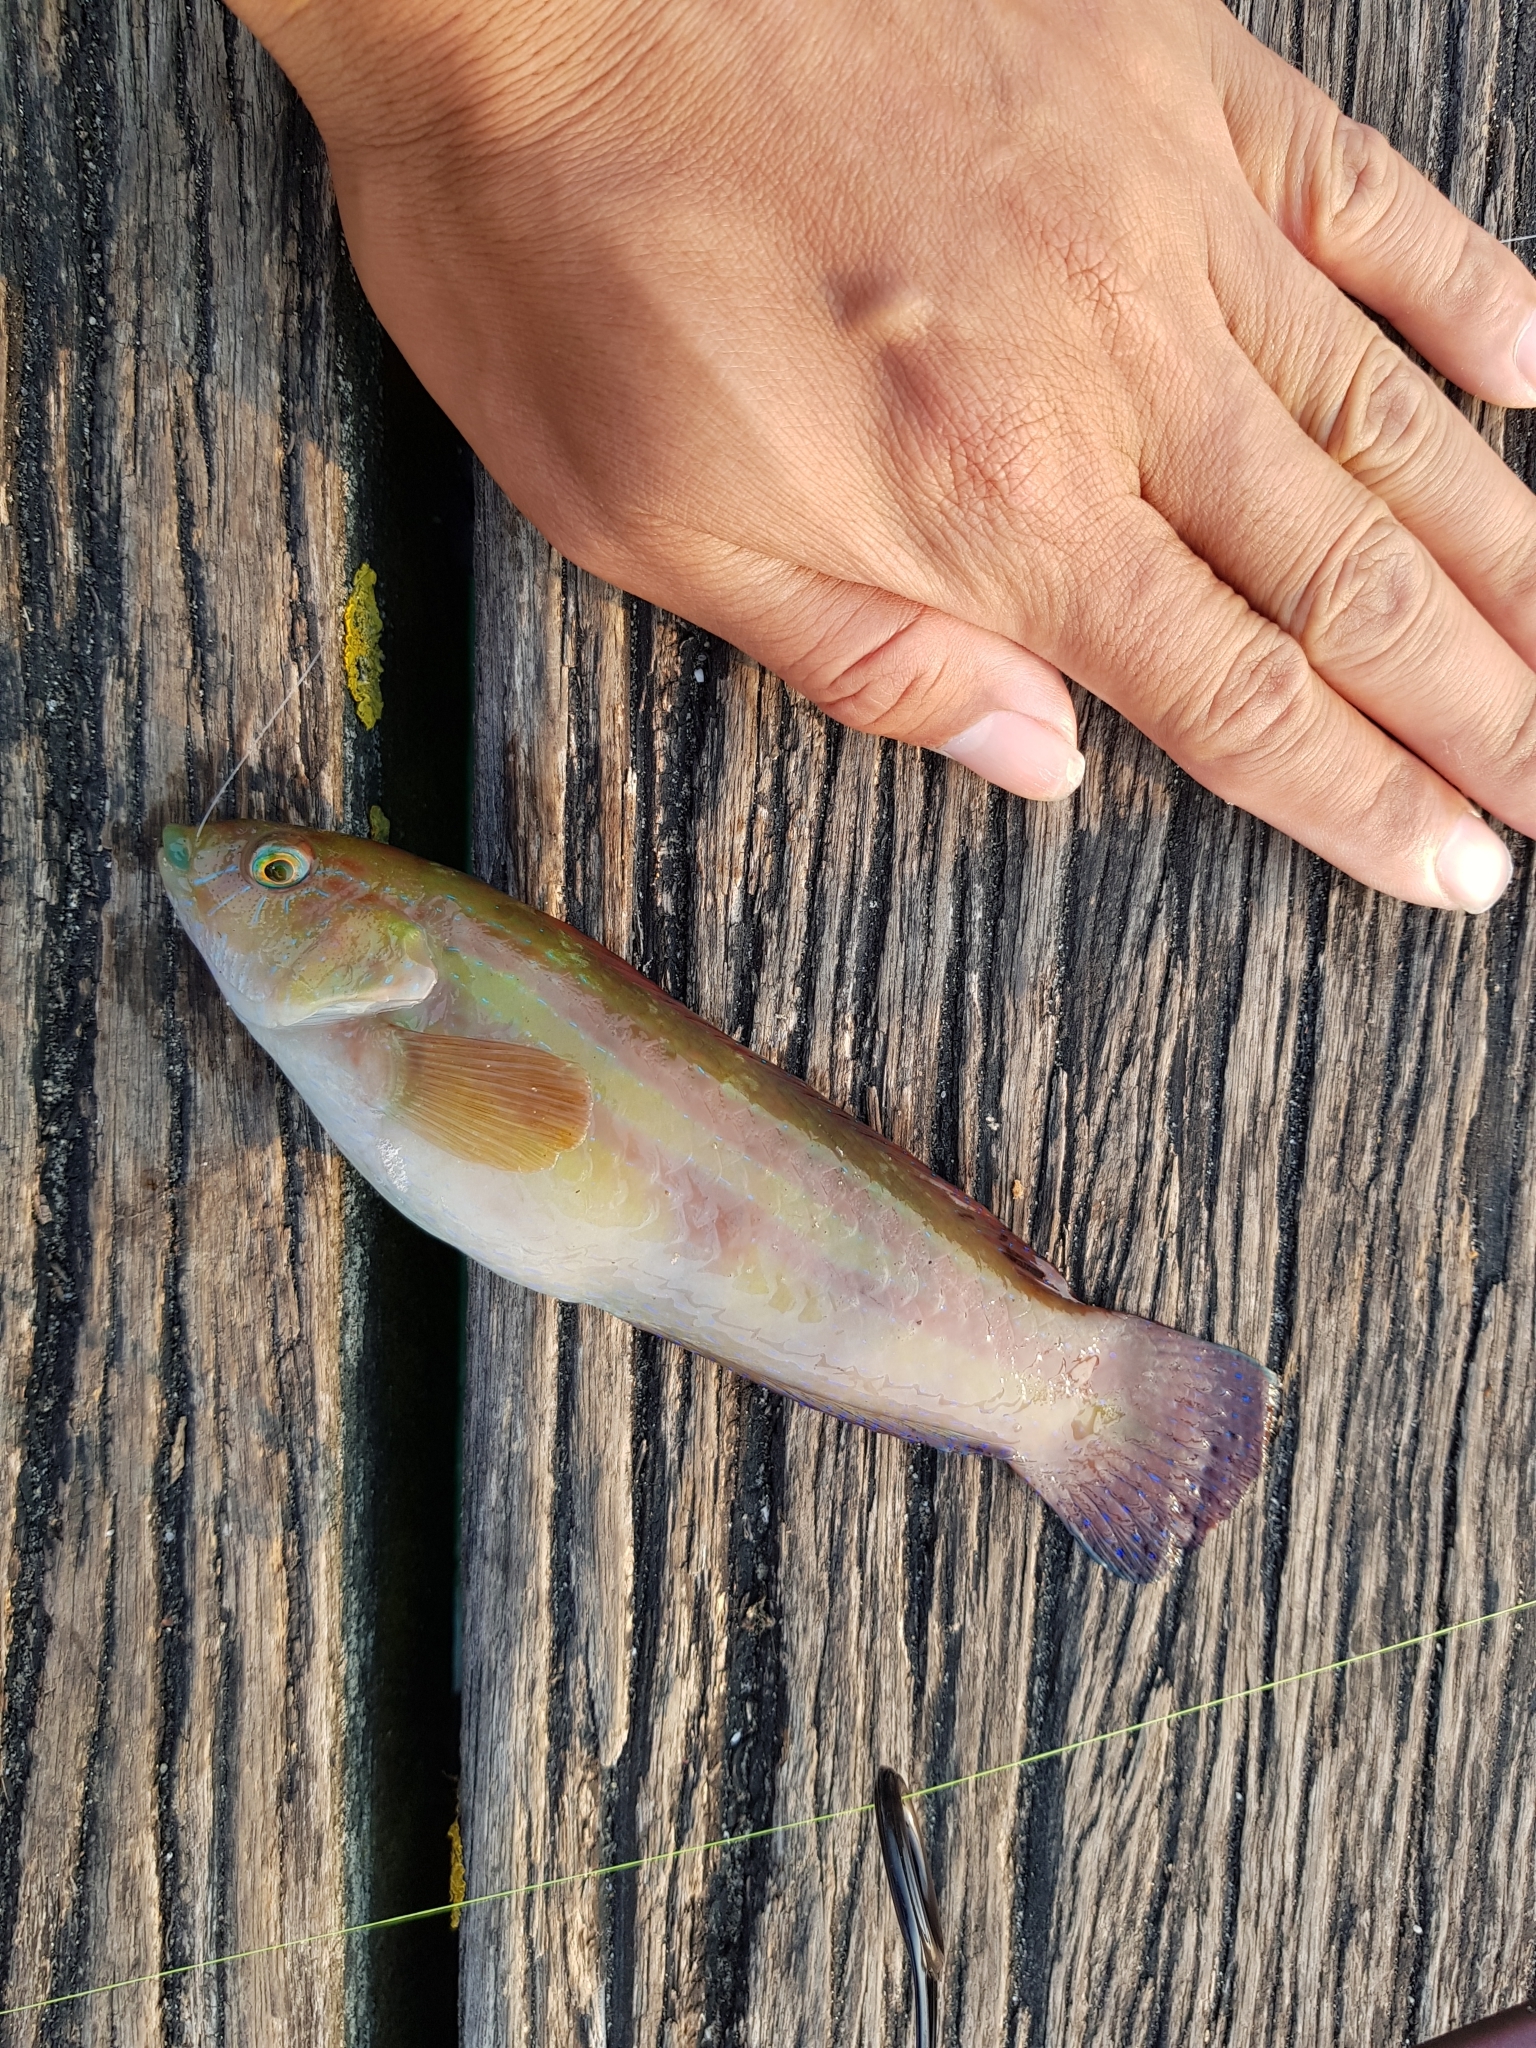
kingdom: Animalia
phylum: Chordata
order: Perciformes
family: Labridae
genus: Pictilabrus
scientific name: Pictilabrus laticlavius
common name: Patrician wrasse
